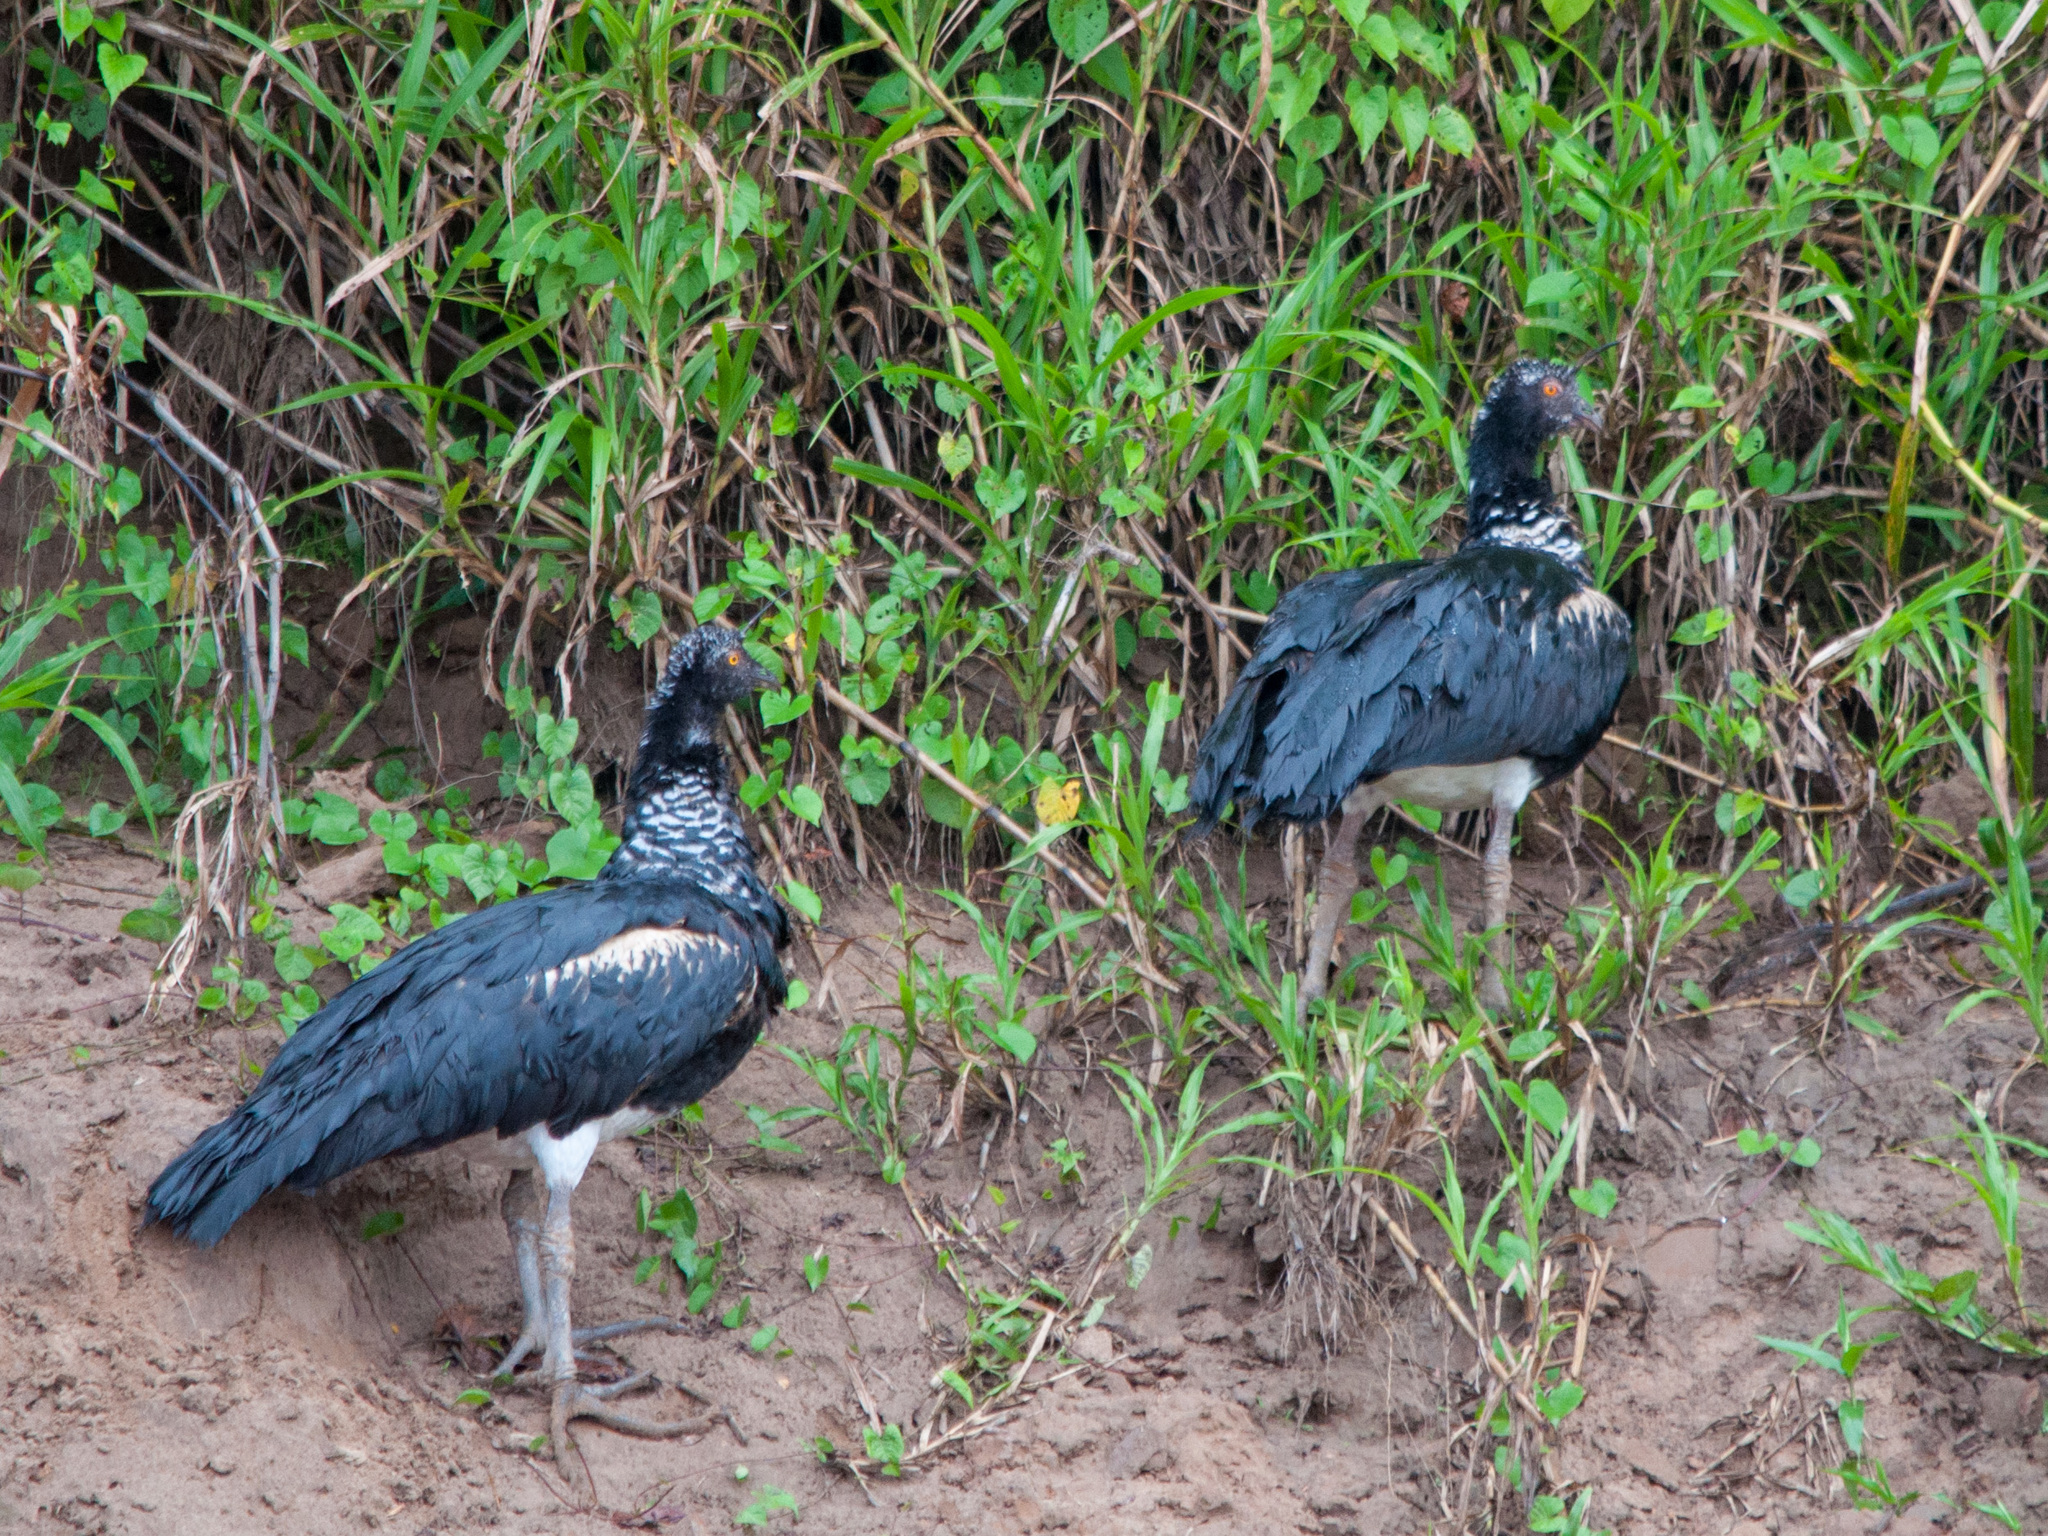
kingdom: Animalia
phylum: Chordata
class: Aves
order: Anseriformes
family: Anhimidae
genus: Anhima
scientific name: Anhima cornuta
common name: Horned screamer
